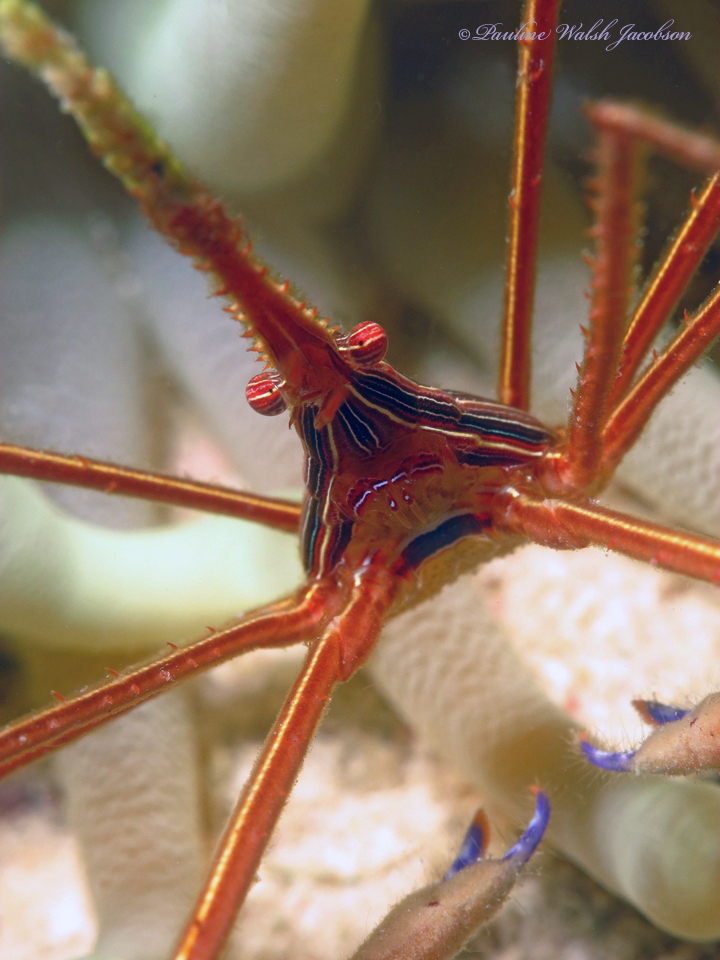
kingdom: Animalia
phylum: Arthropoda
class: Malacostraca
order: Decapoda
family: Inachoididae
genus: Stenorhynchus
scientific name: Stenorhynchus seticornis
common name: Arrow crab
